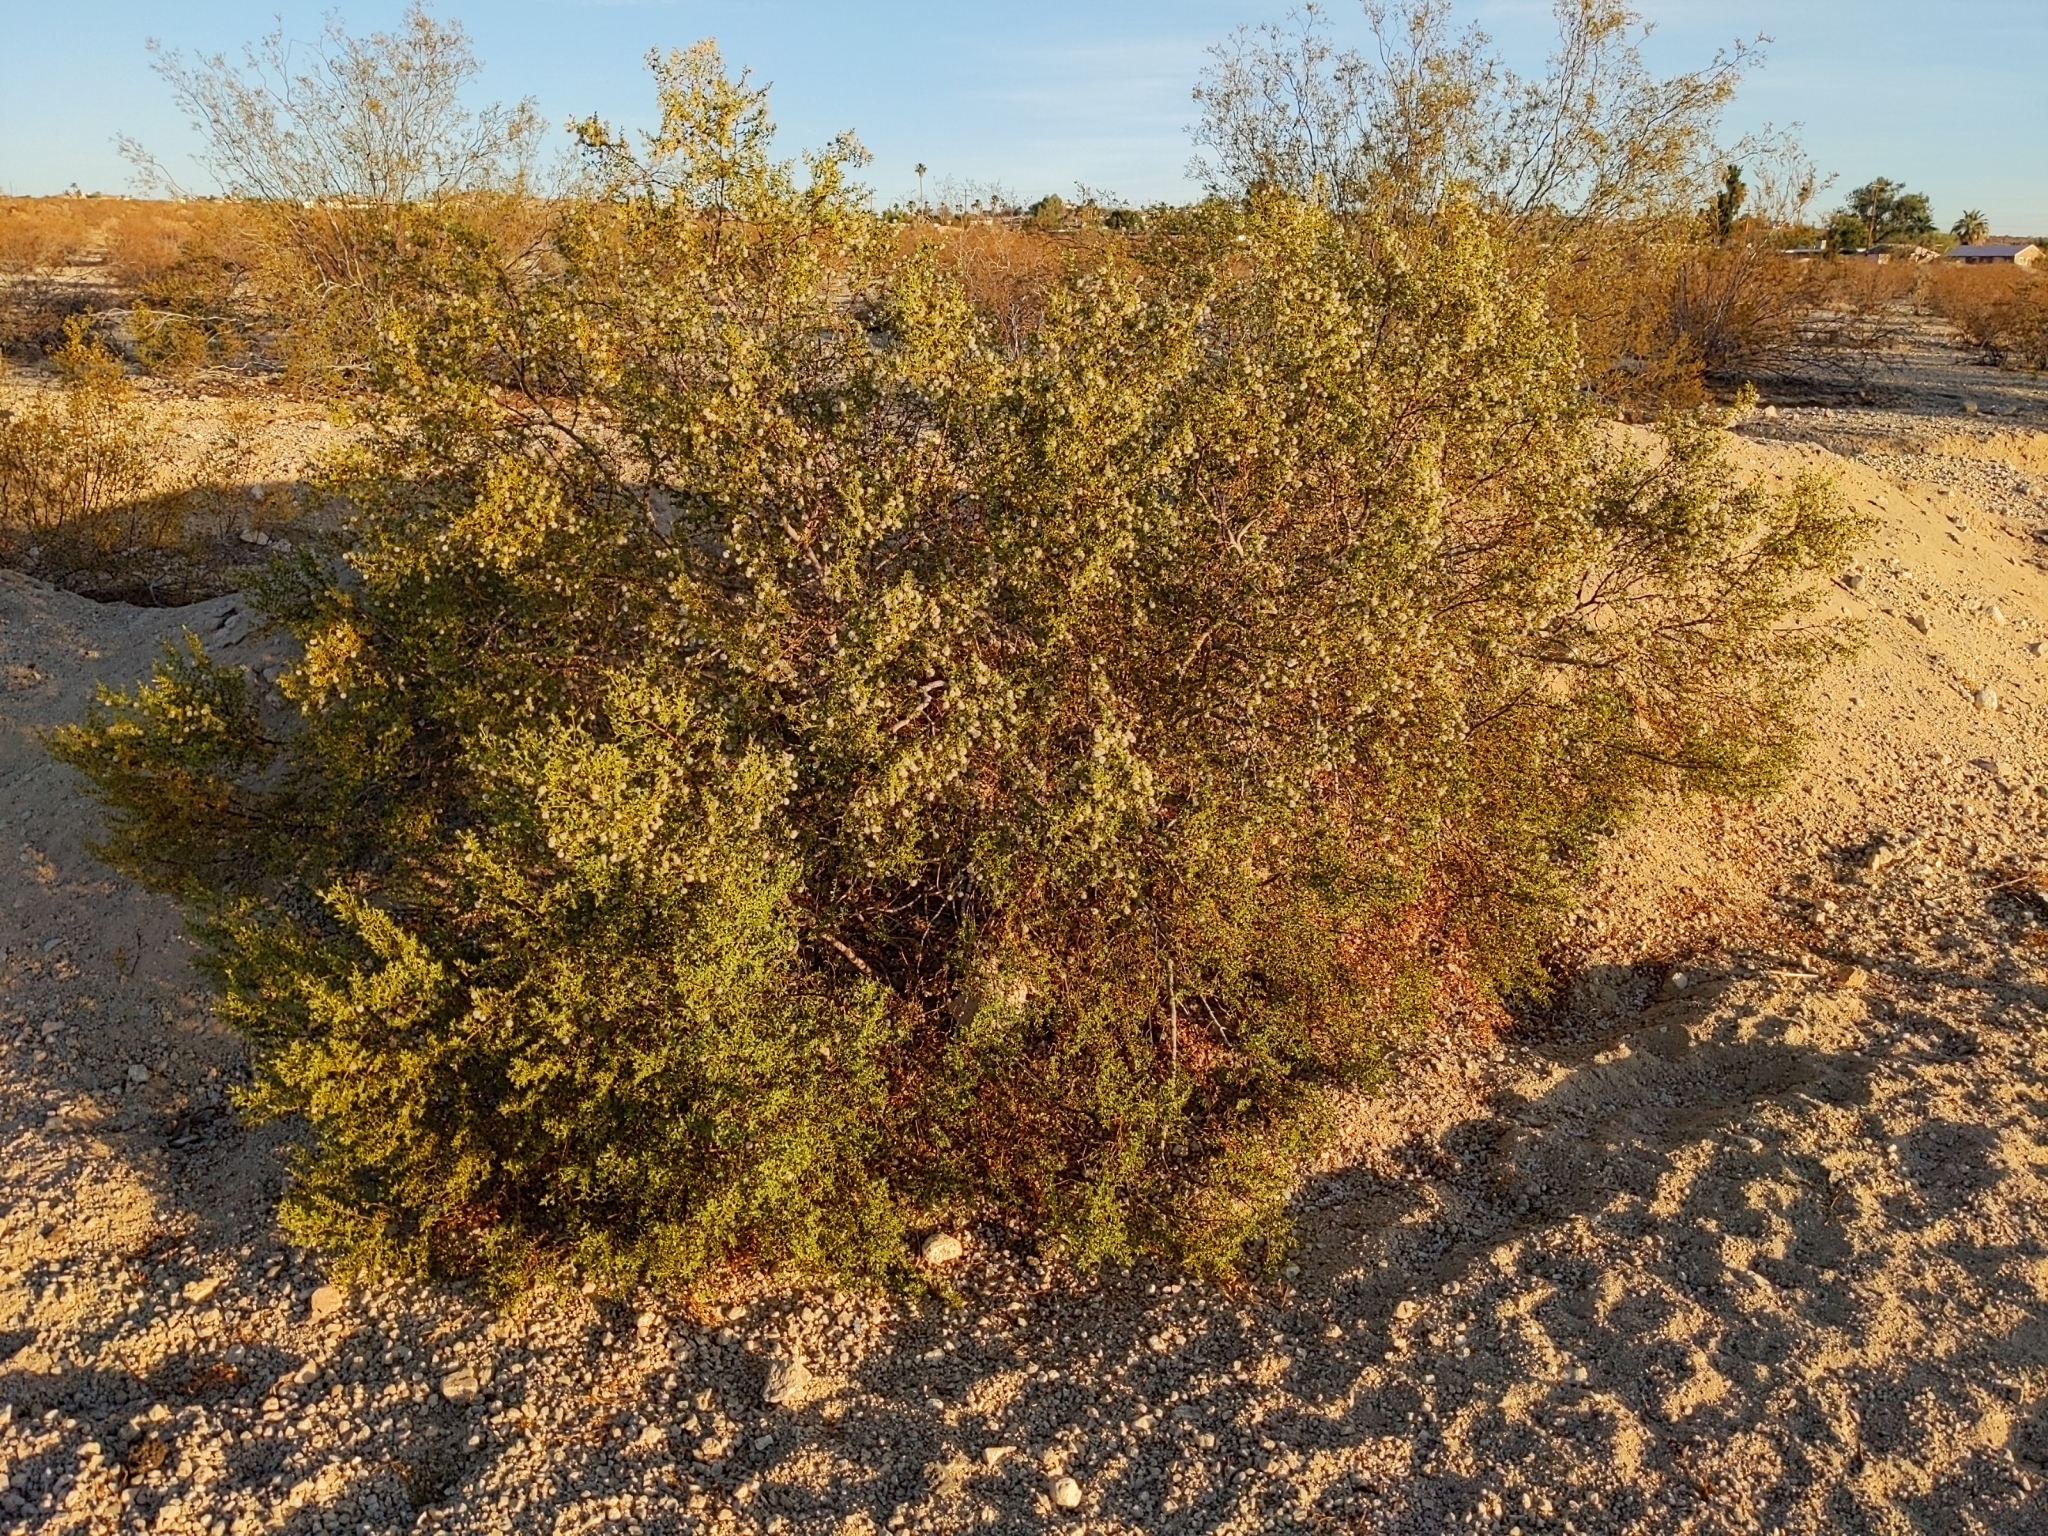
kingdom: Plantae
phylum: Tracheophyta
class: Magnoliopsida
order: Zygophyllales
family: Zygophyllaceae
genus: Larrea
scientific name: Larrea tridentata
